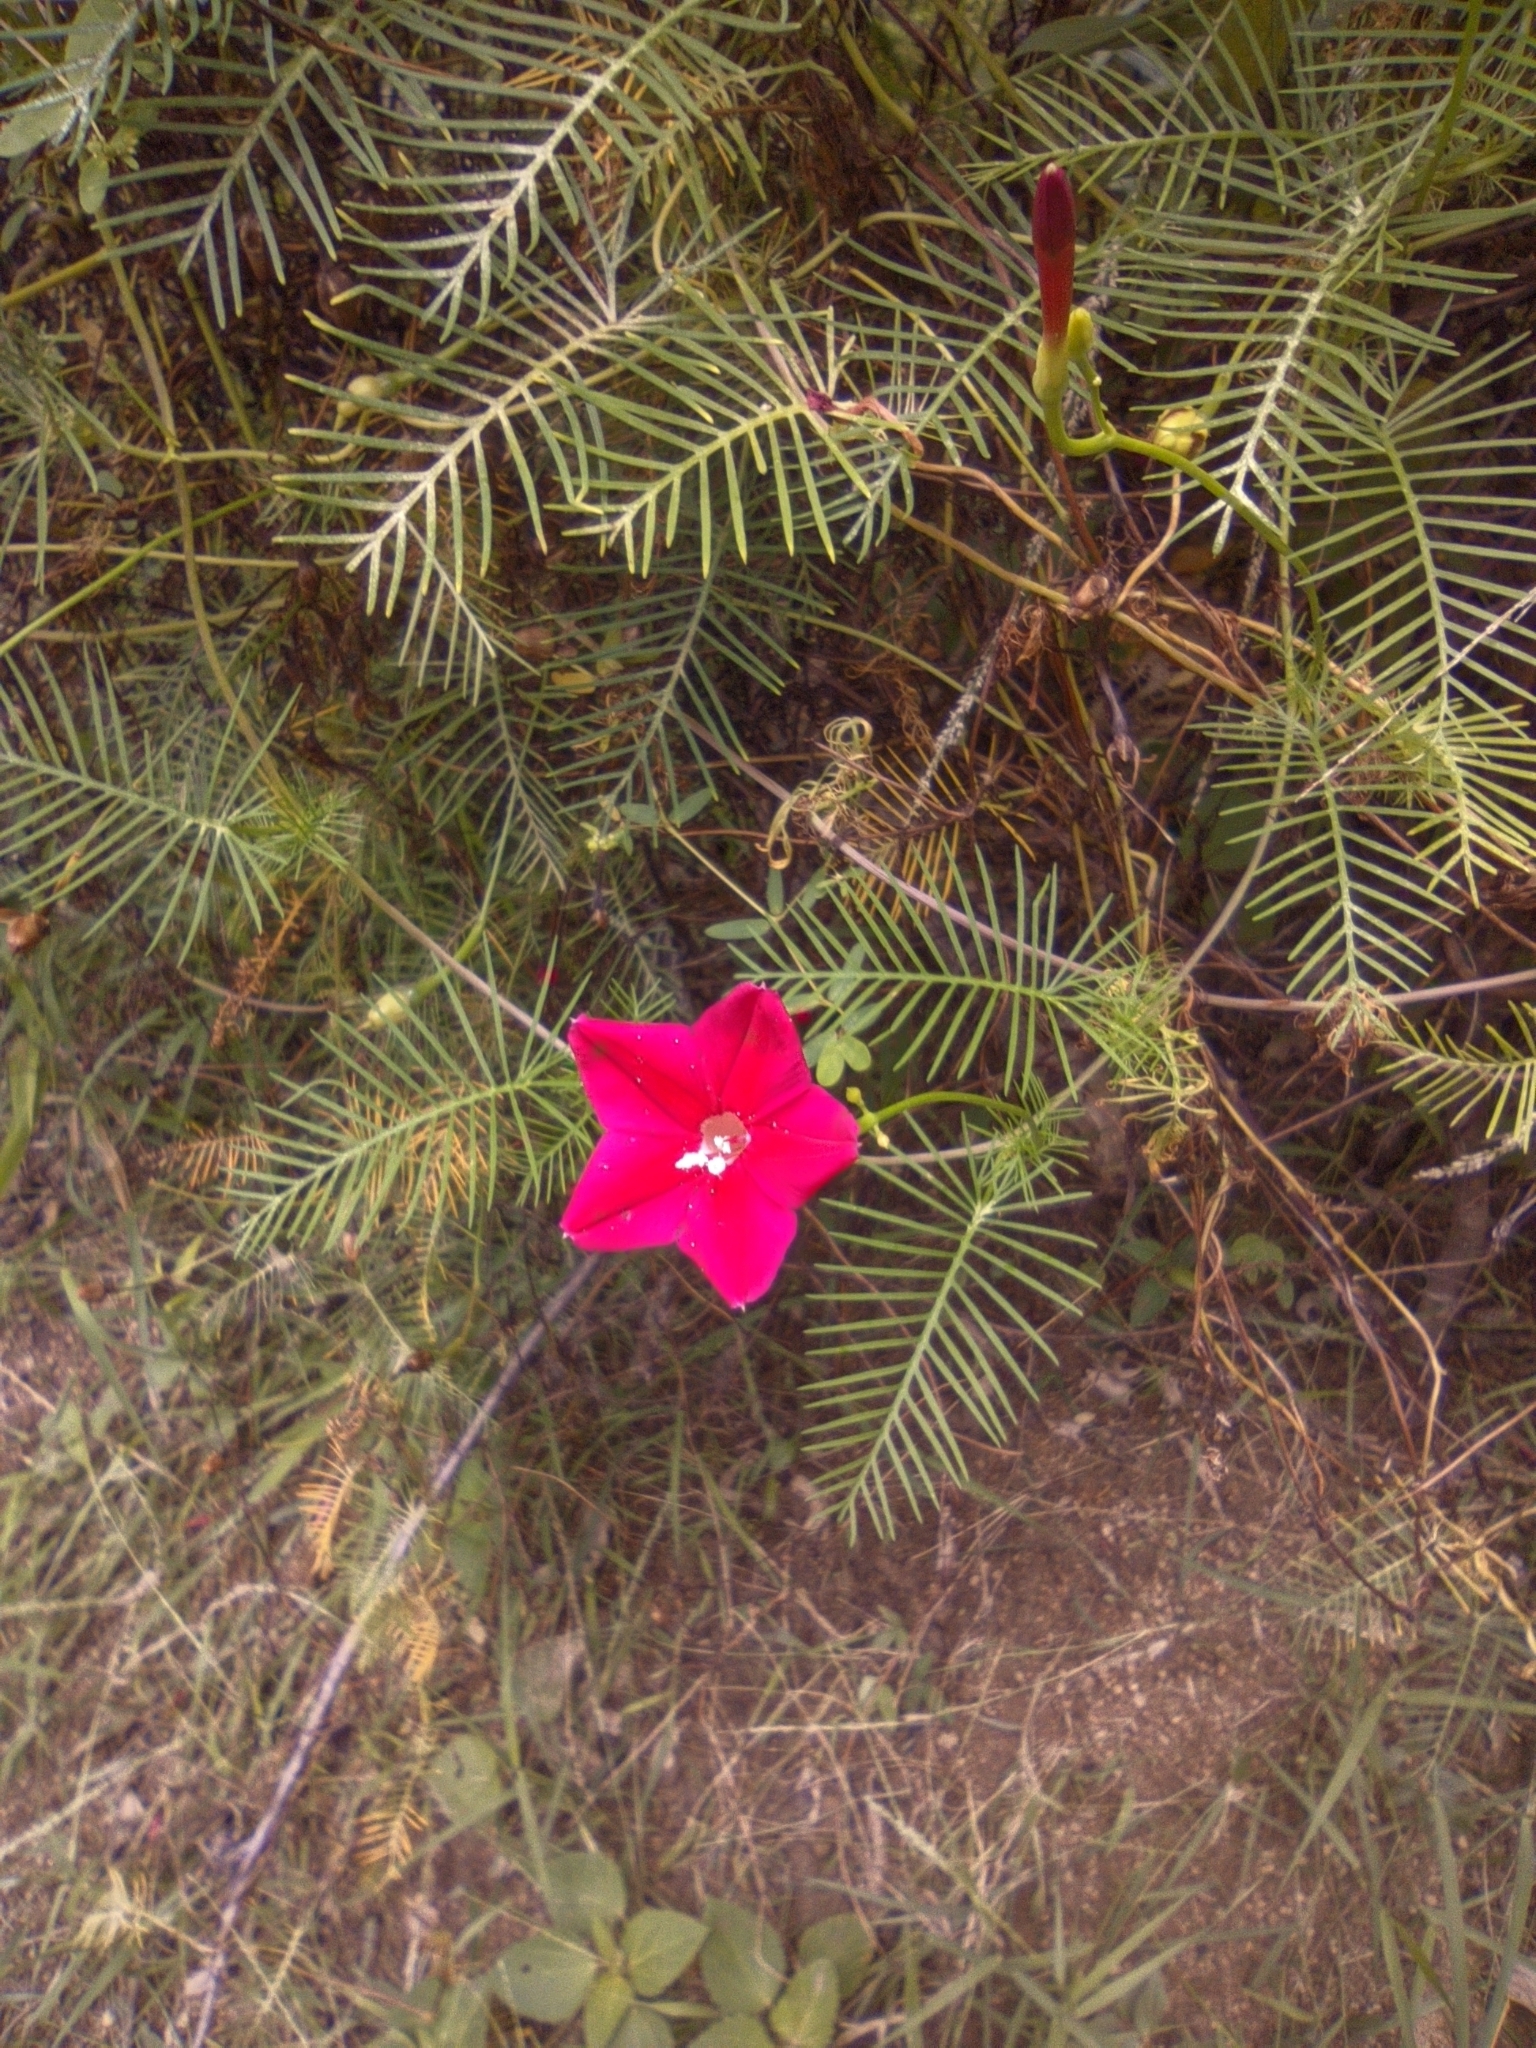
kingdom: Plantae
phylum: Tracheophyta
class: Magnoliopsida
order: Solanales
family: Convolvulaceae
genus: Ipomoea
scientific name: Ipomoea quamoclit
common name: Cypress vine
